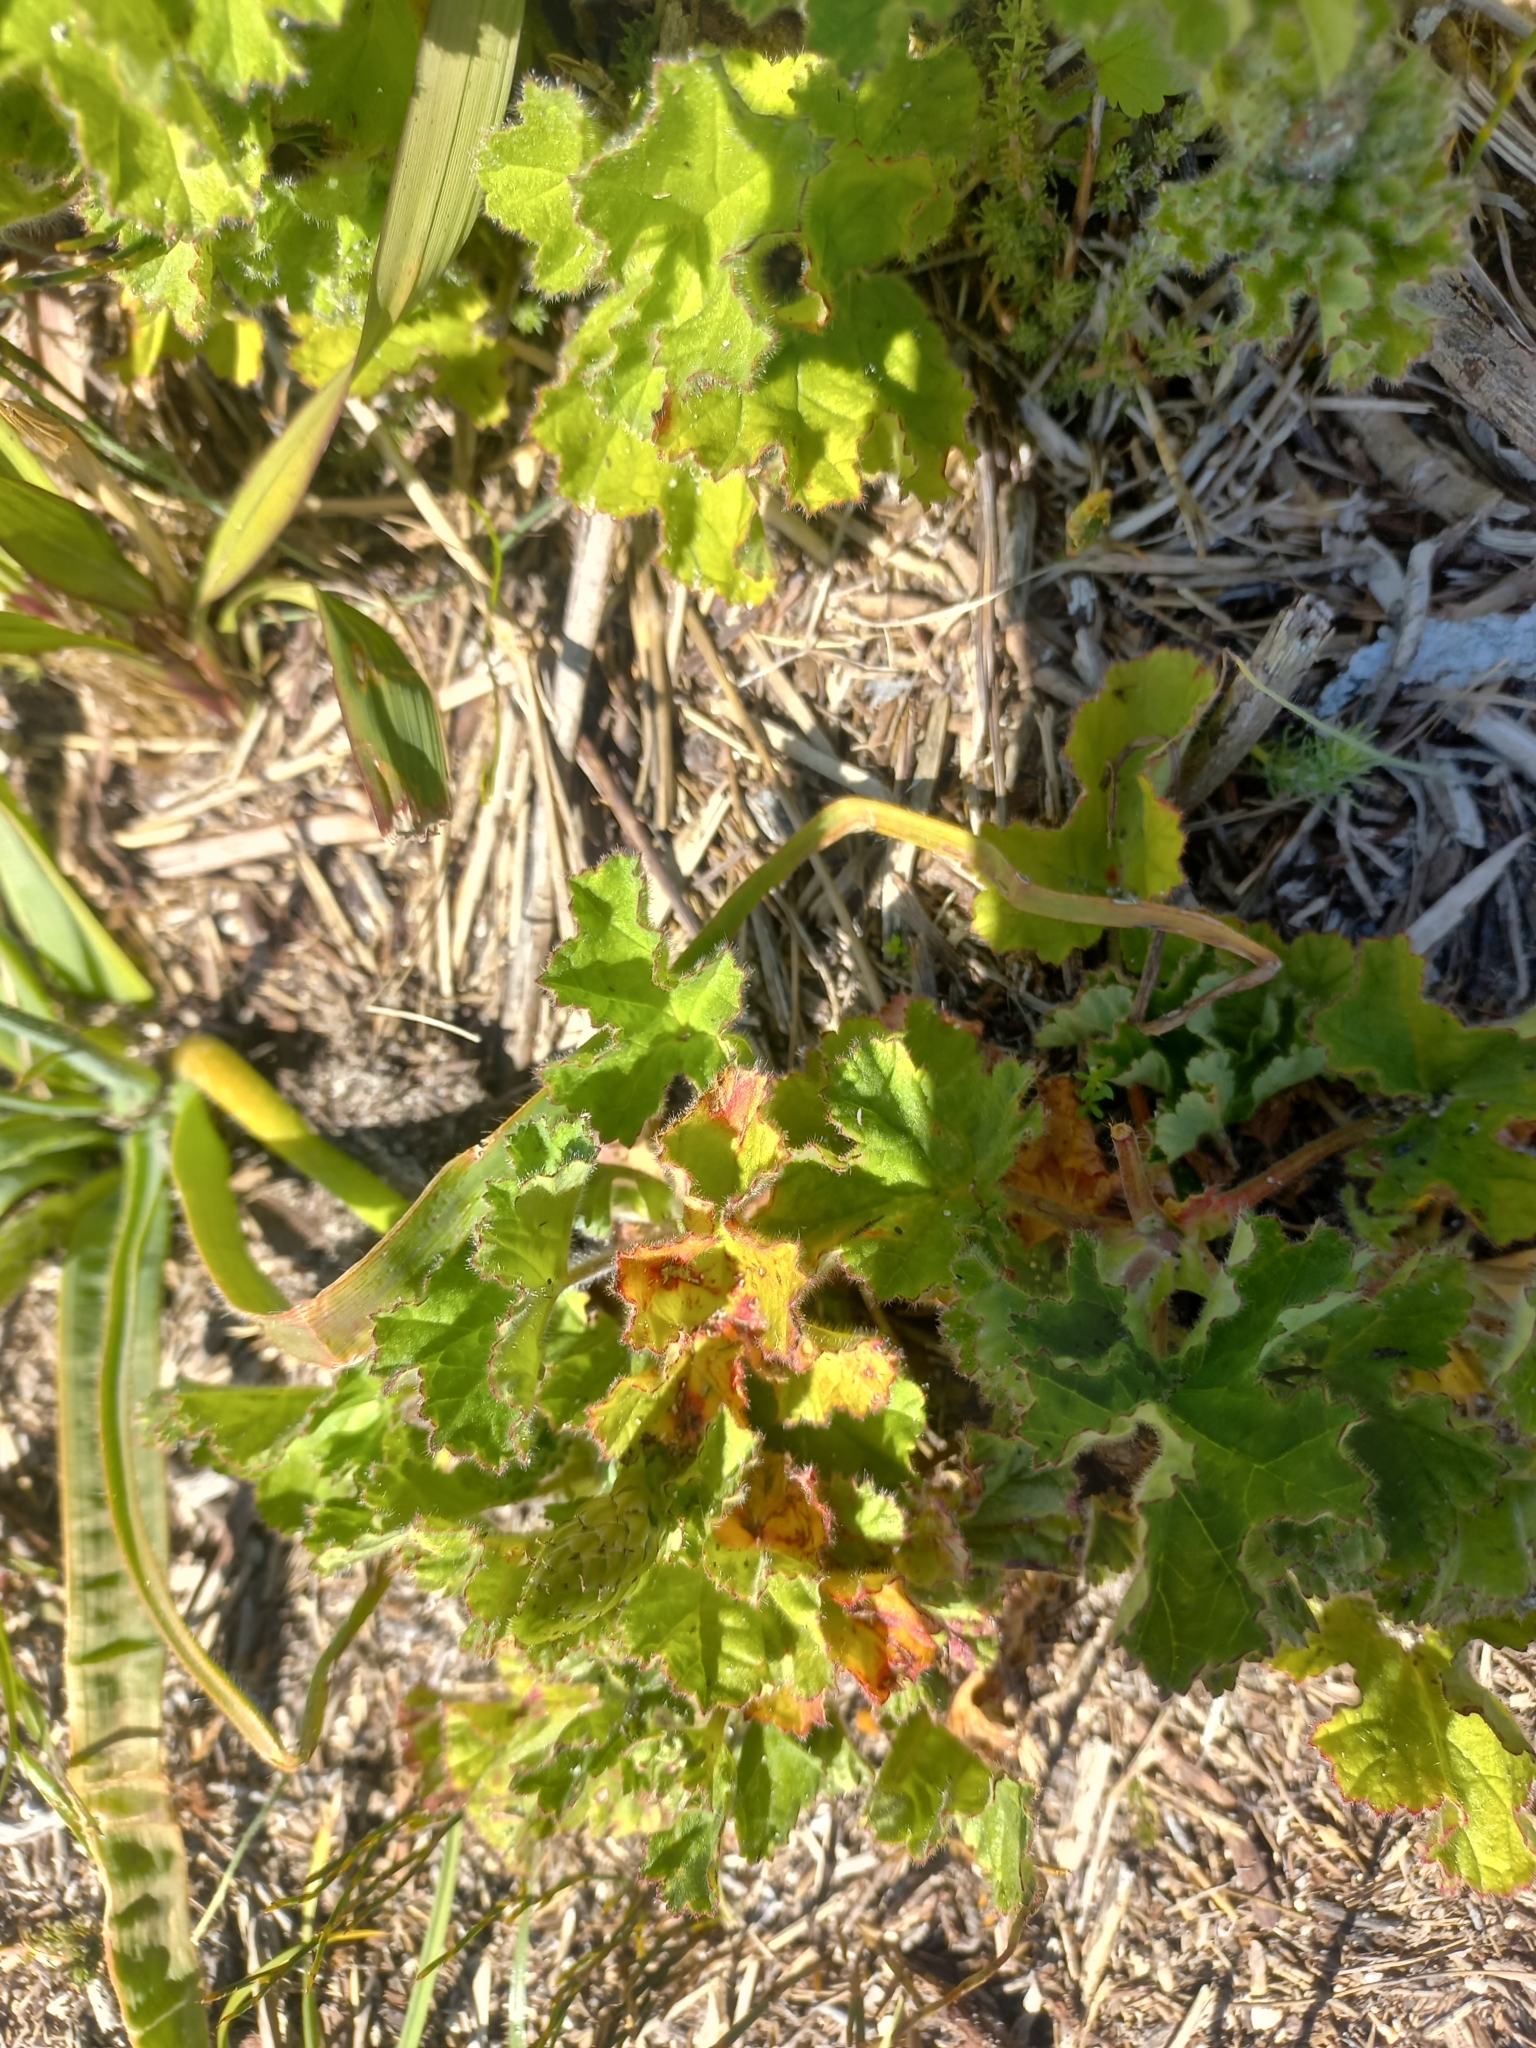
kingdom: Plantae
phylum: Tracheophyta
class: Magnoliopsida
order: Geraniales
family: Geraniaceae
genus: Pelargonium
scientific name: Pelargonium capitatum
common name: Rose scented geranium
